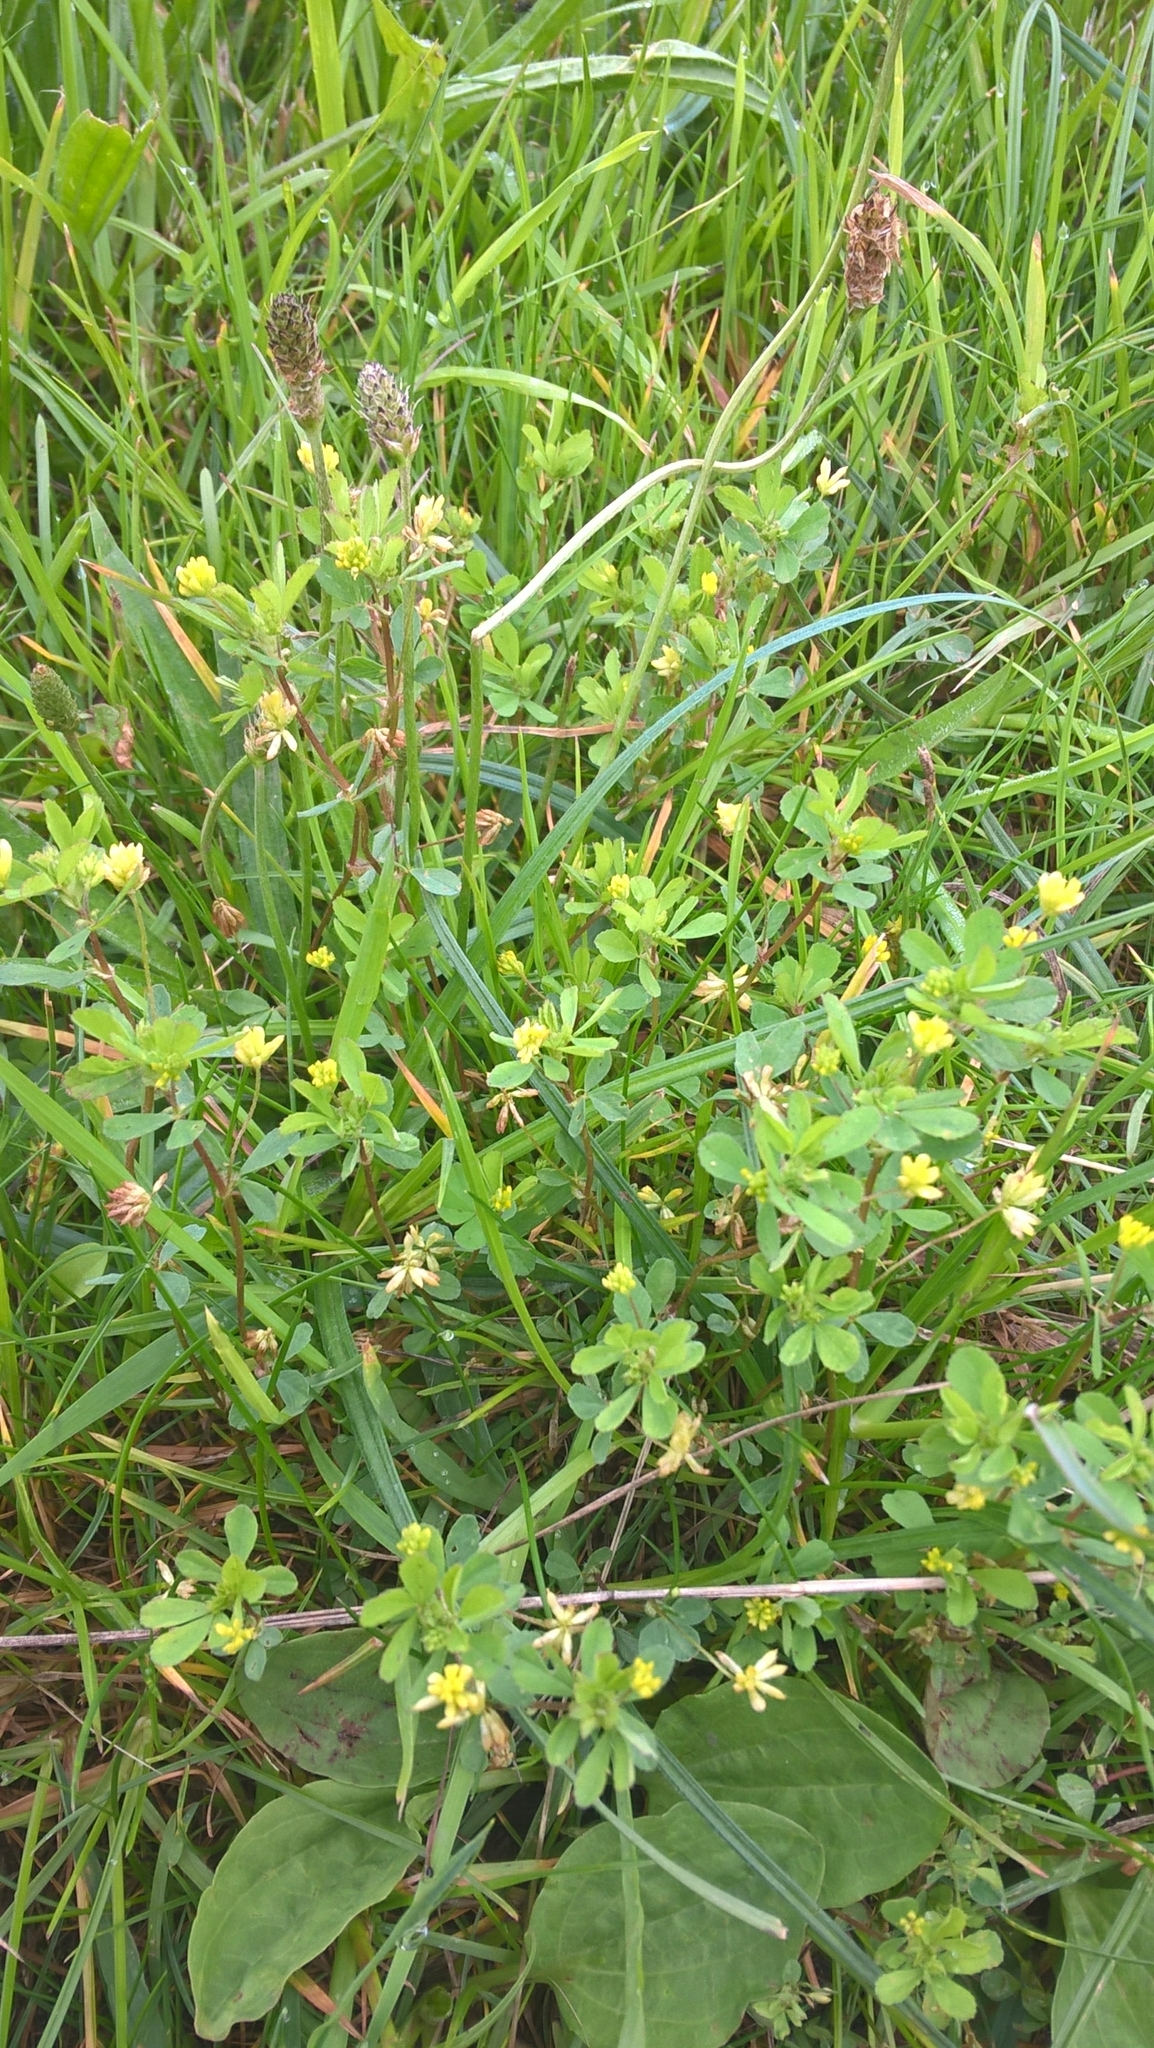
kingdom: Plantae
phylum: Tracheophyta
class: Magnoliopsida
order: Fabales
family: Fabaceae
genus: Trifolium
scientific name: Trifolium dubium
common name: Suckling clover
